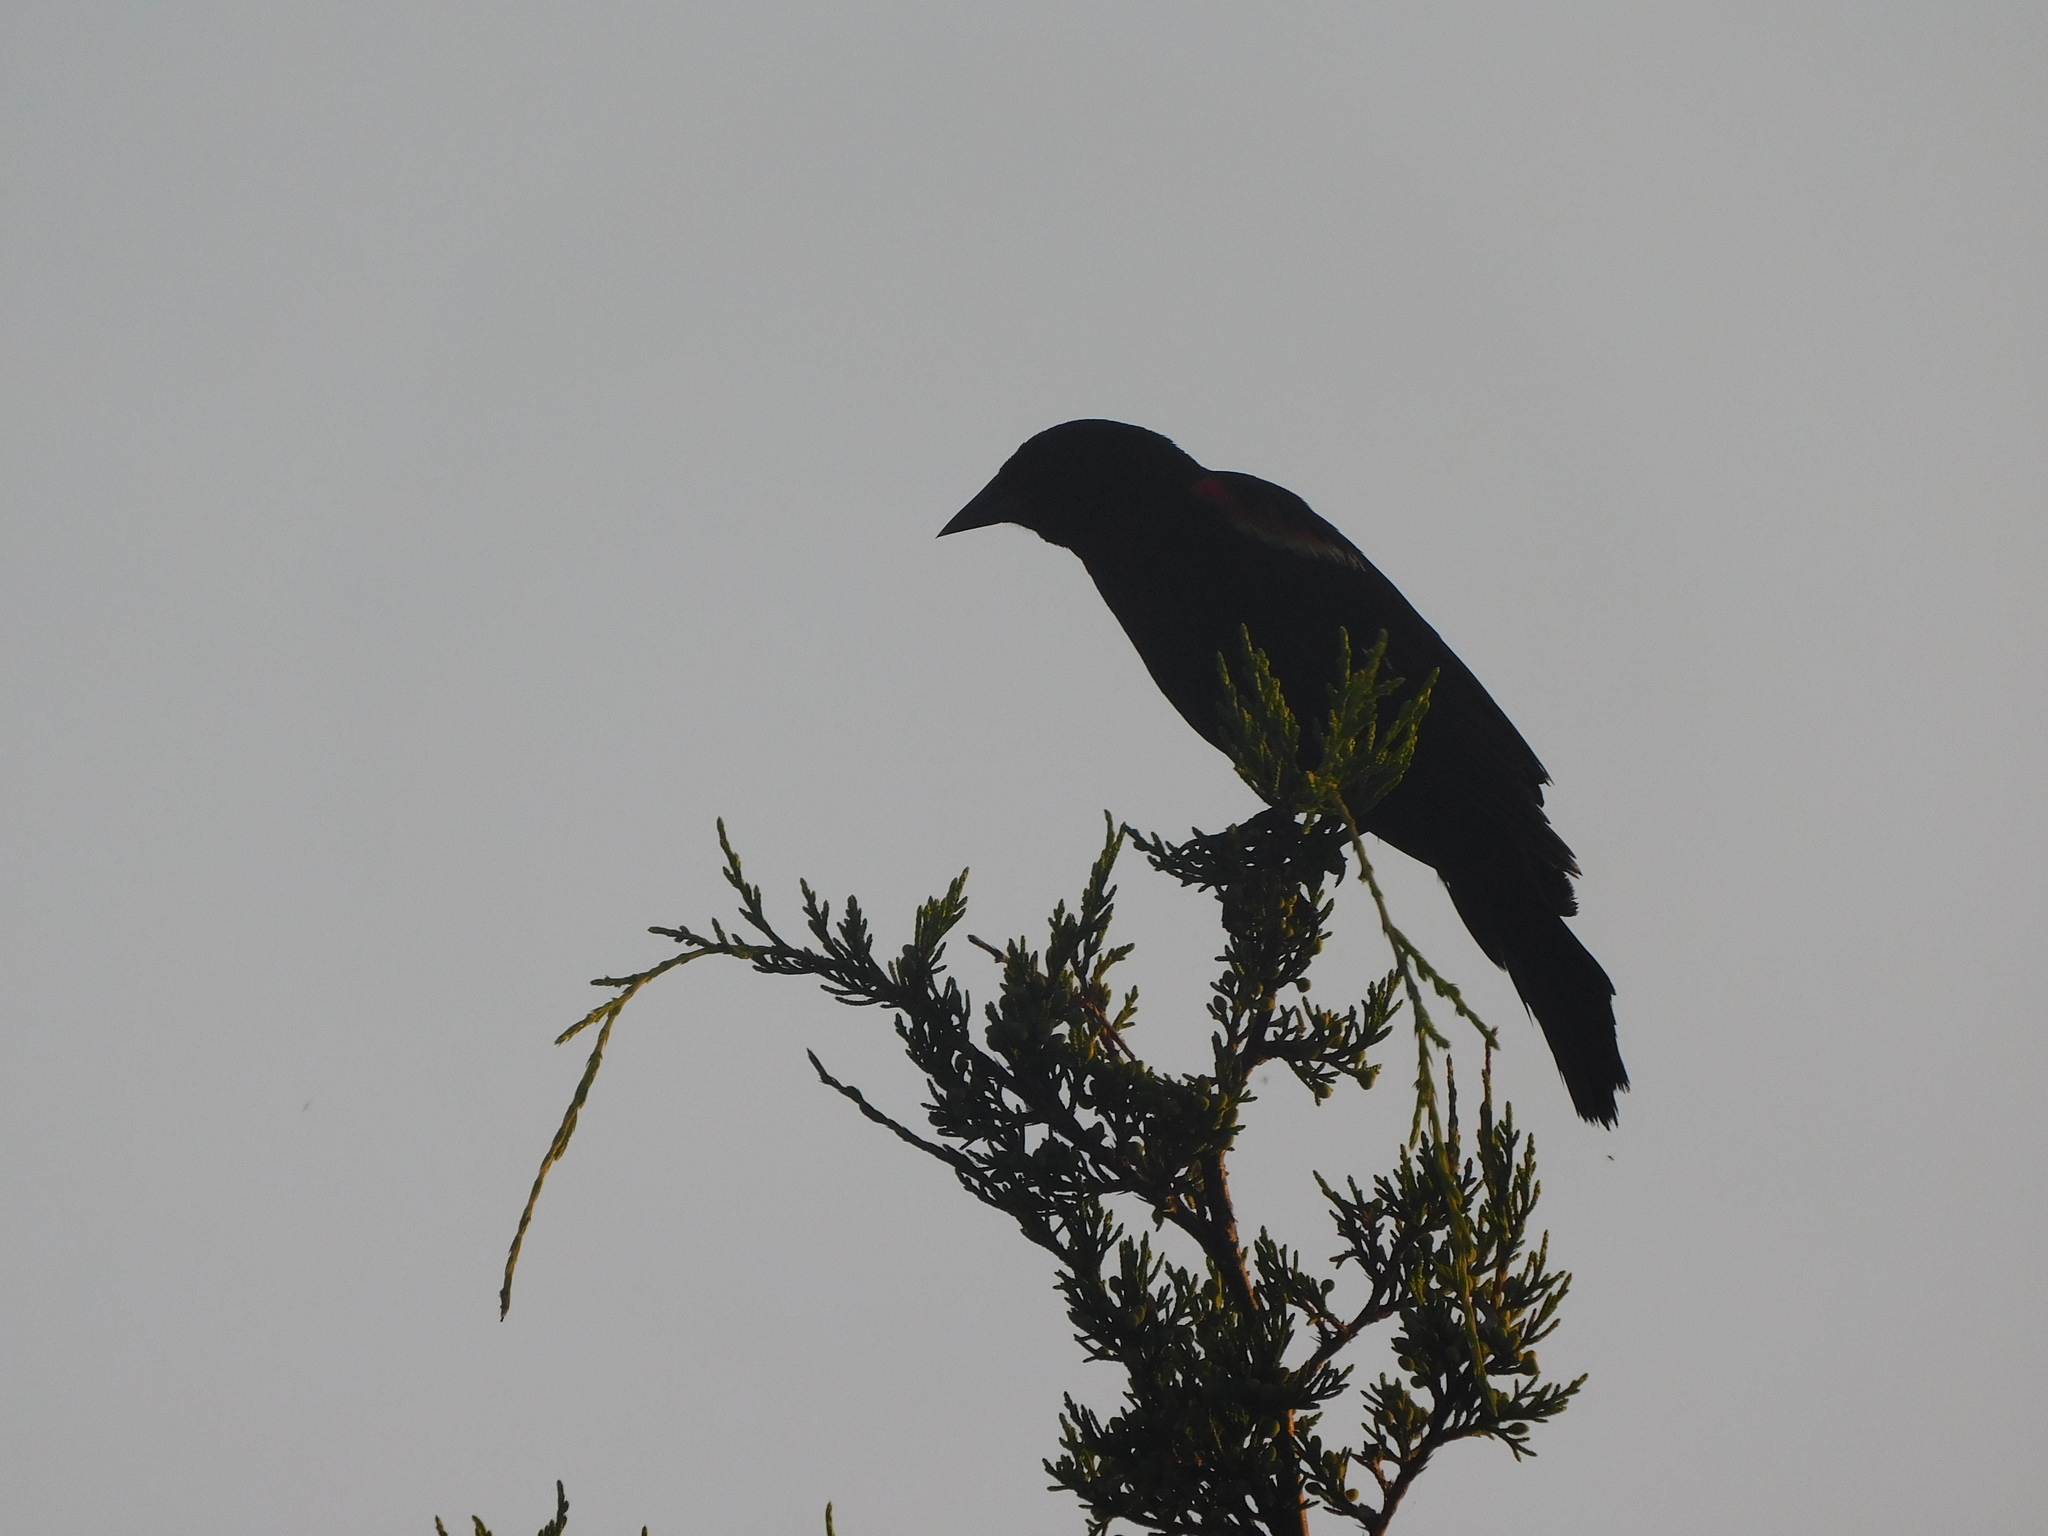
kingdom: Animalia
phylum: Chordata
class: Aves
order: Passeriformes
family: Icteridae
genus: Agelaius
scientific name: Agelaius phoeniceus
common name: Red-winged blackbird
